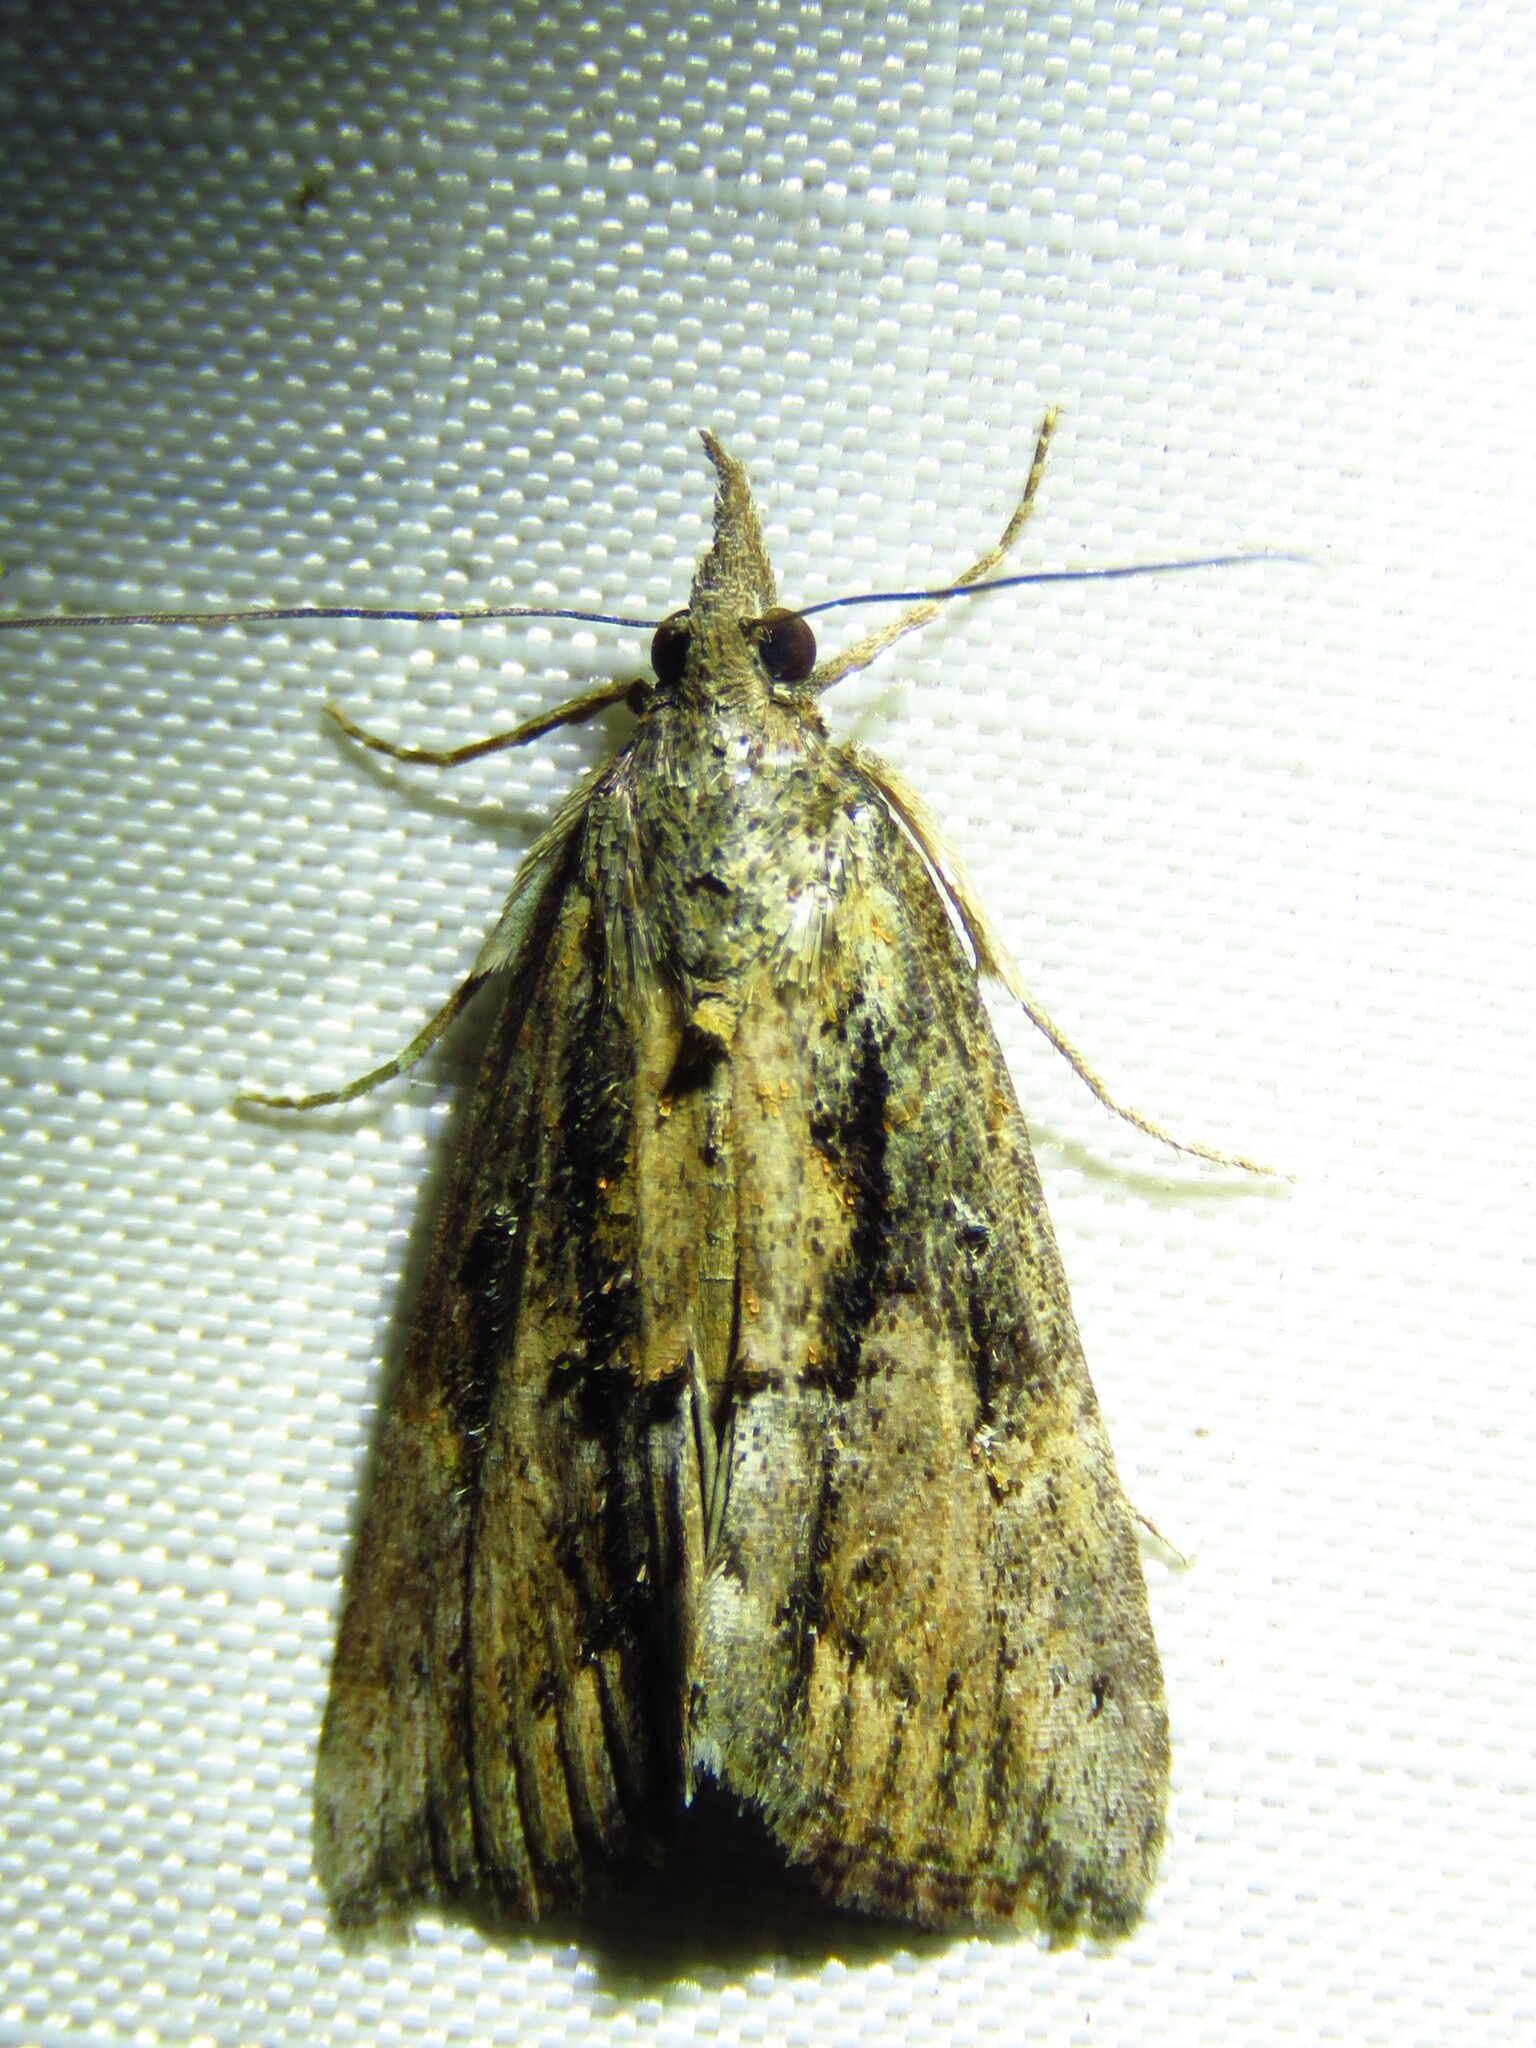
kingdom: Animalia
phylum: Arthropoda
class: Insecta
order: Lepidoptera
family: Erebidae
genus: Hypena
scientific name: Hypena scabra
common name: Green cloverworm
